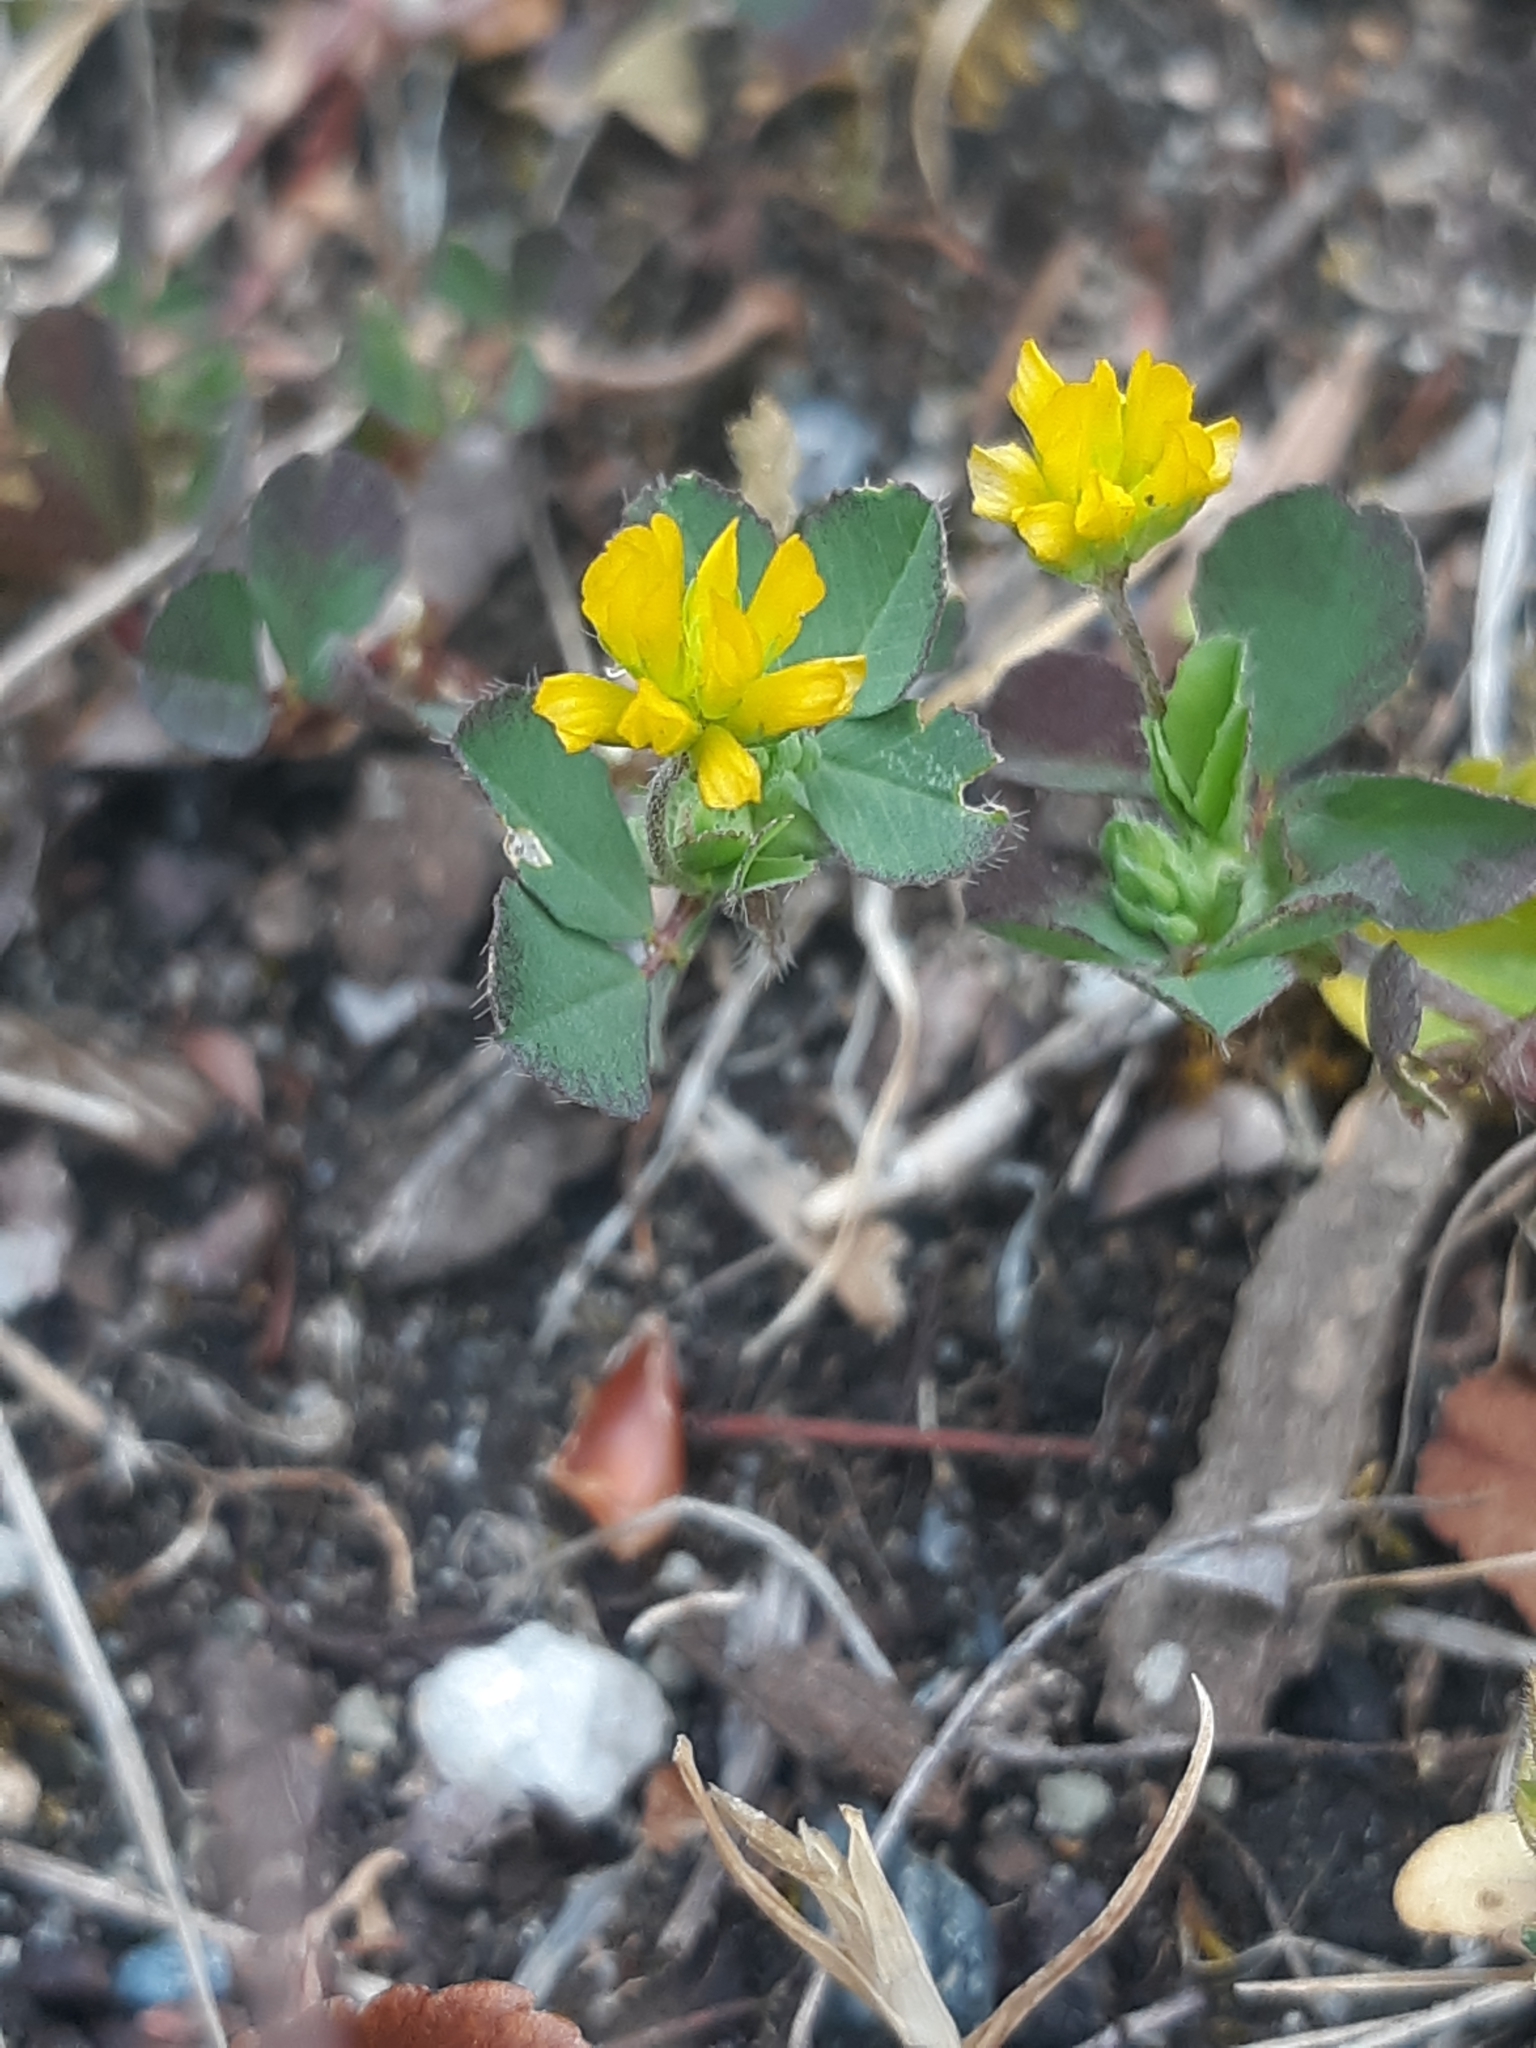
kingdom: Plantae
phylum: Tracheophyta
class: Magnoliopsida
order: Fabales
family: Fabaceae
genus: Trifolium
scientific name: Trifolium dubium
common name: Suckling clover
